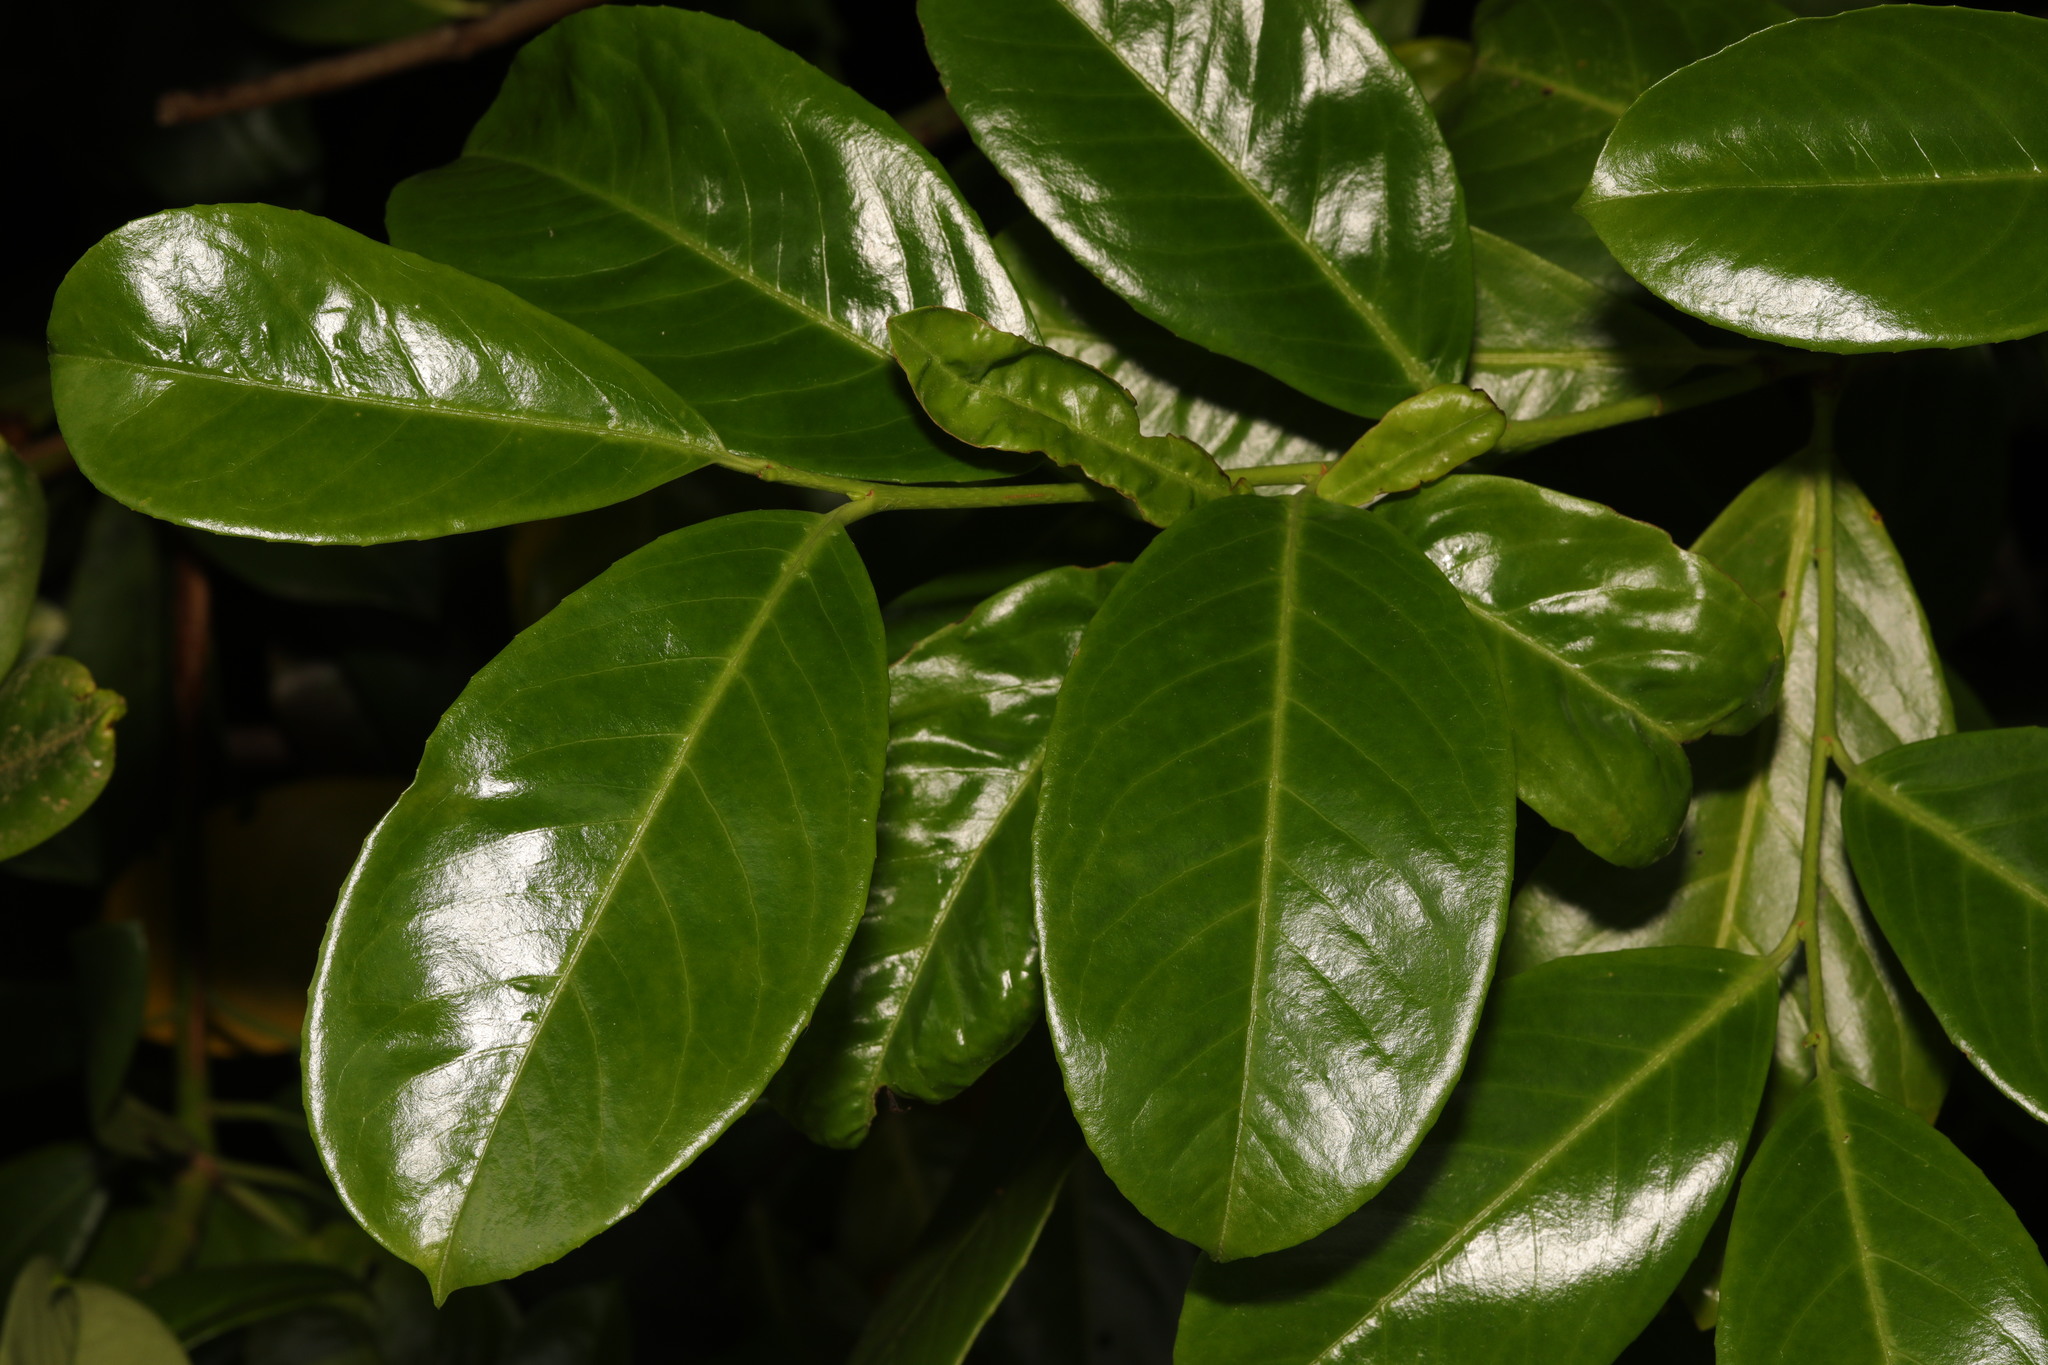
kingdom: Plantae
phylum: Tracheophyta
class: Magnoliopsida
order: Rosales
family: Rosaceae
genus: Prunus
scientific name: Prunus laurocerasus
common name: Cherry laurel
